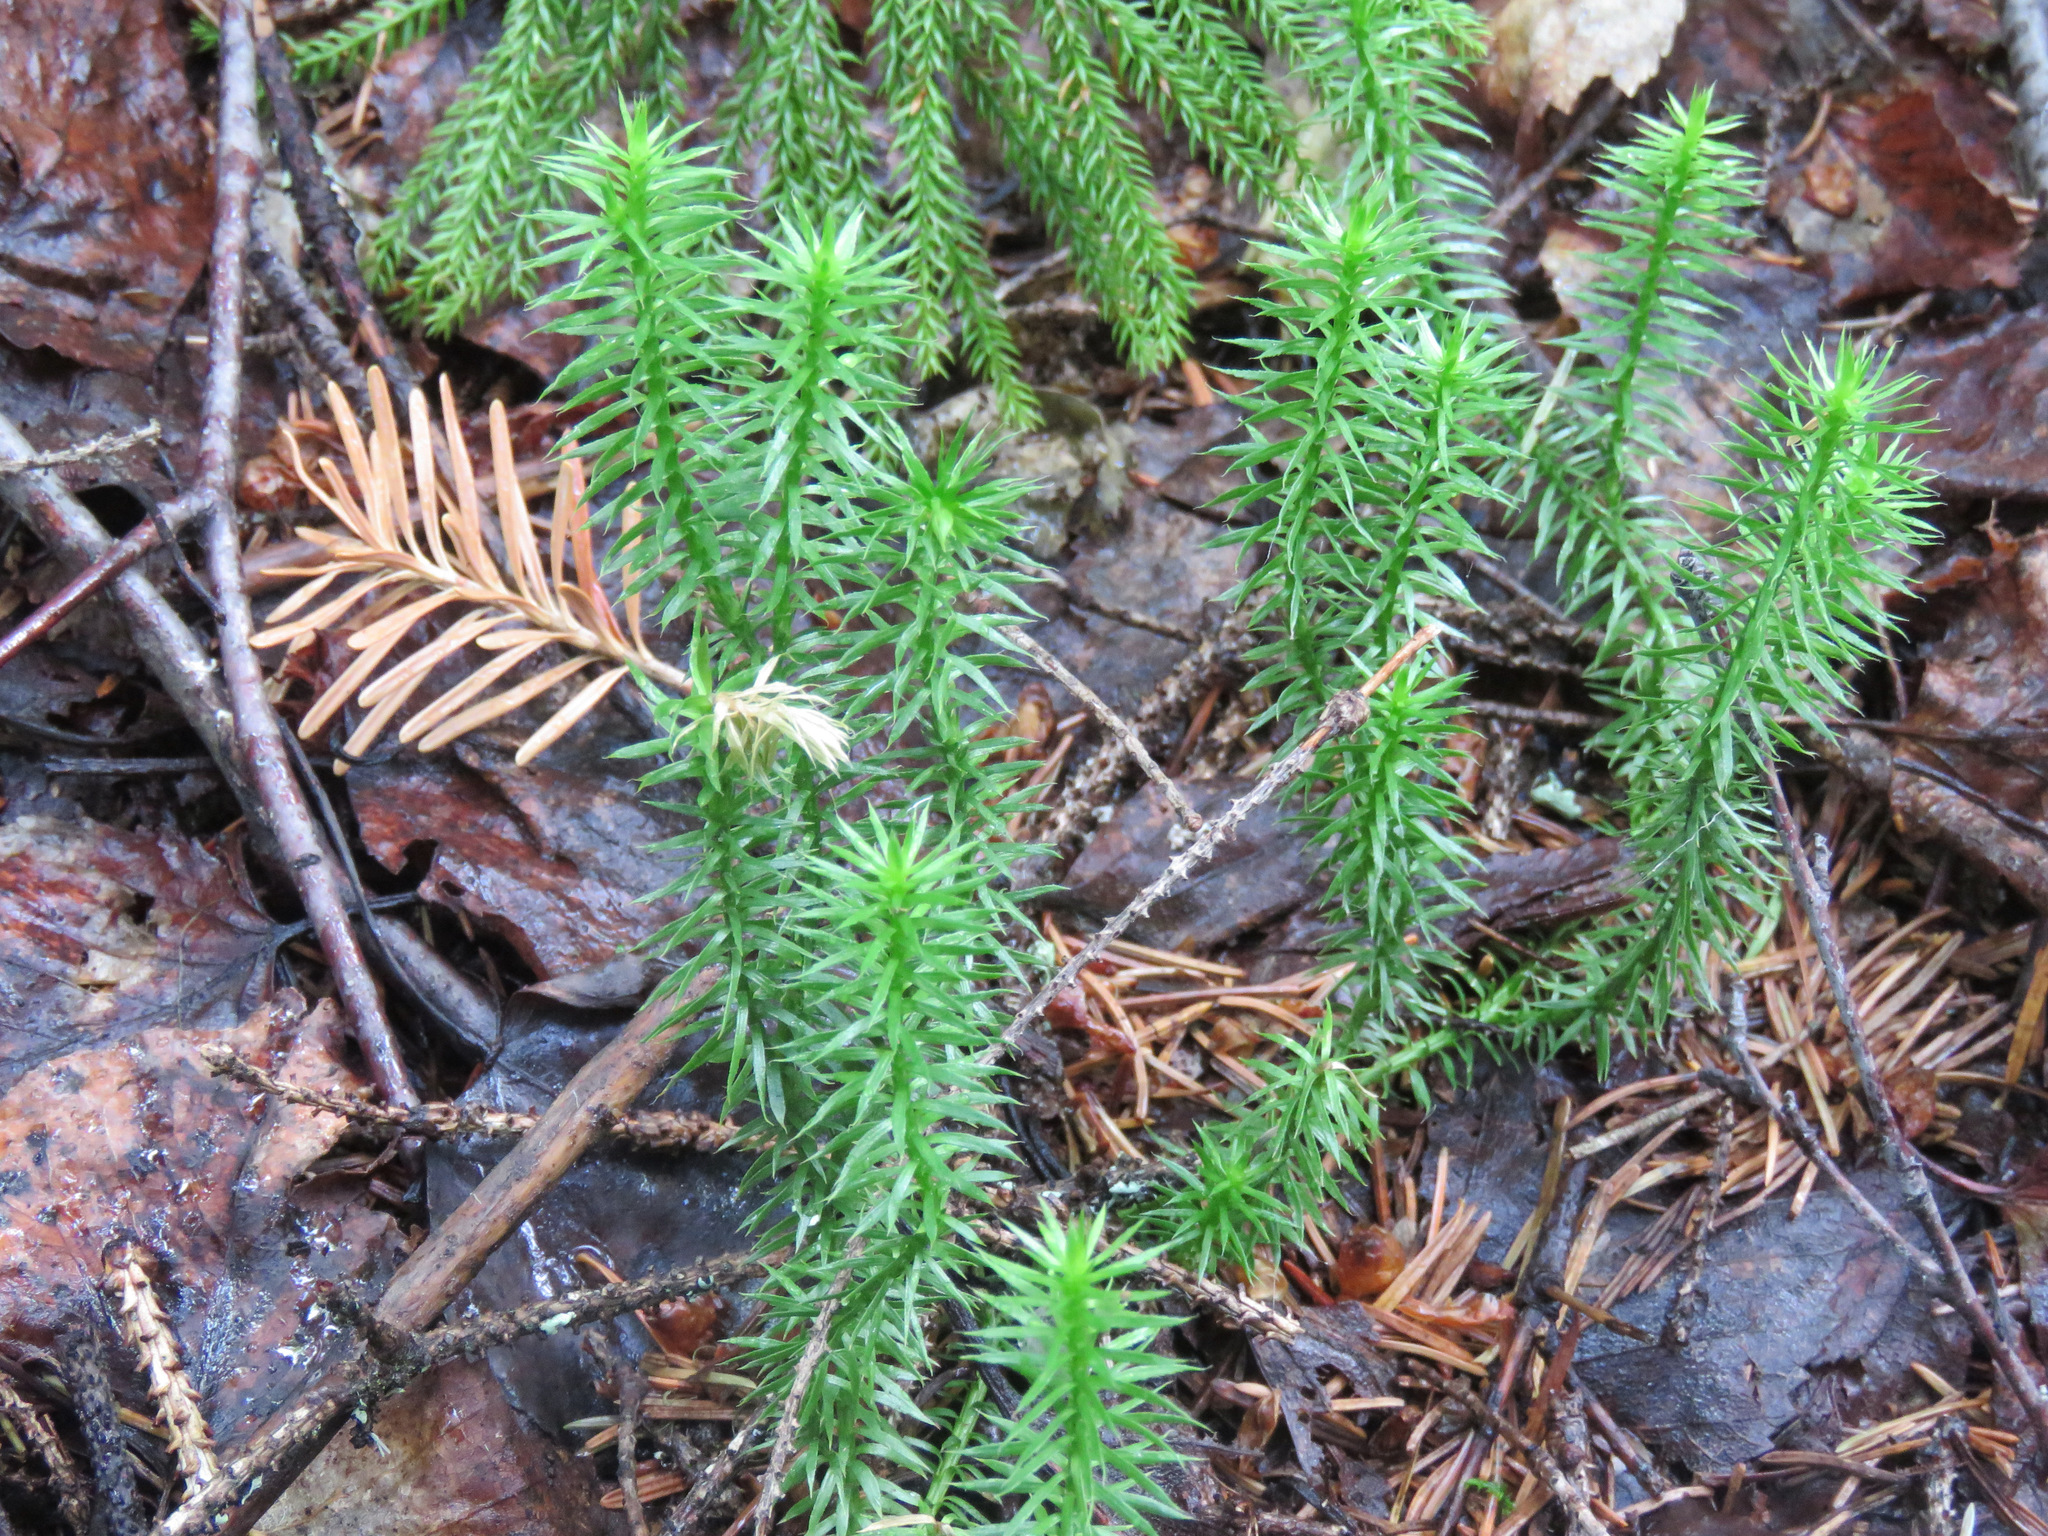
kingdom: Plantae
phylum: Tracheophyta
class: Lycopodiopsida
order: Lycopodiales
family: Lycopodiaceae
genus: Spinulum
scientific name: Spinulum annotinum
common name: Interrupted club-moss
